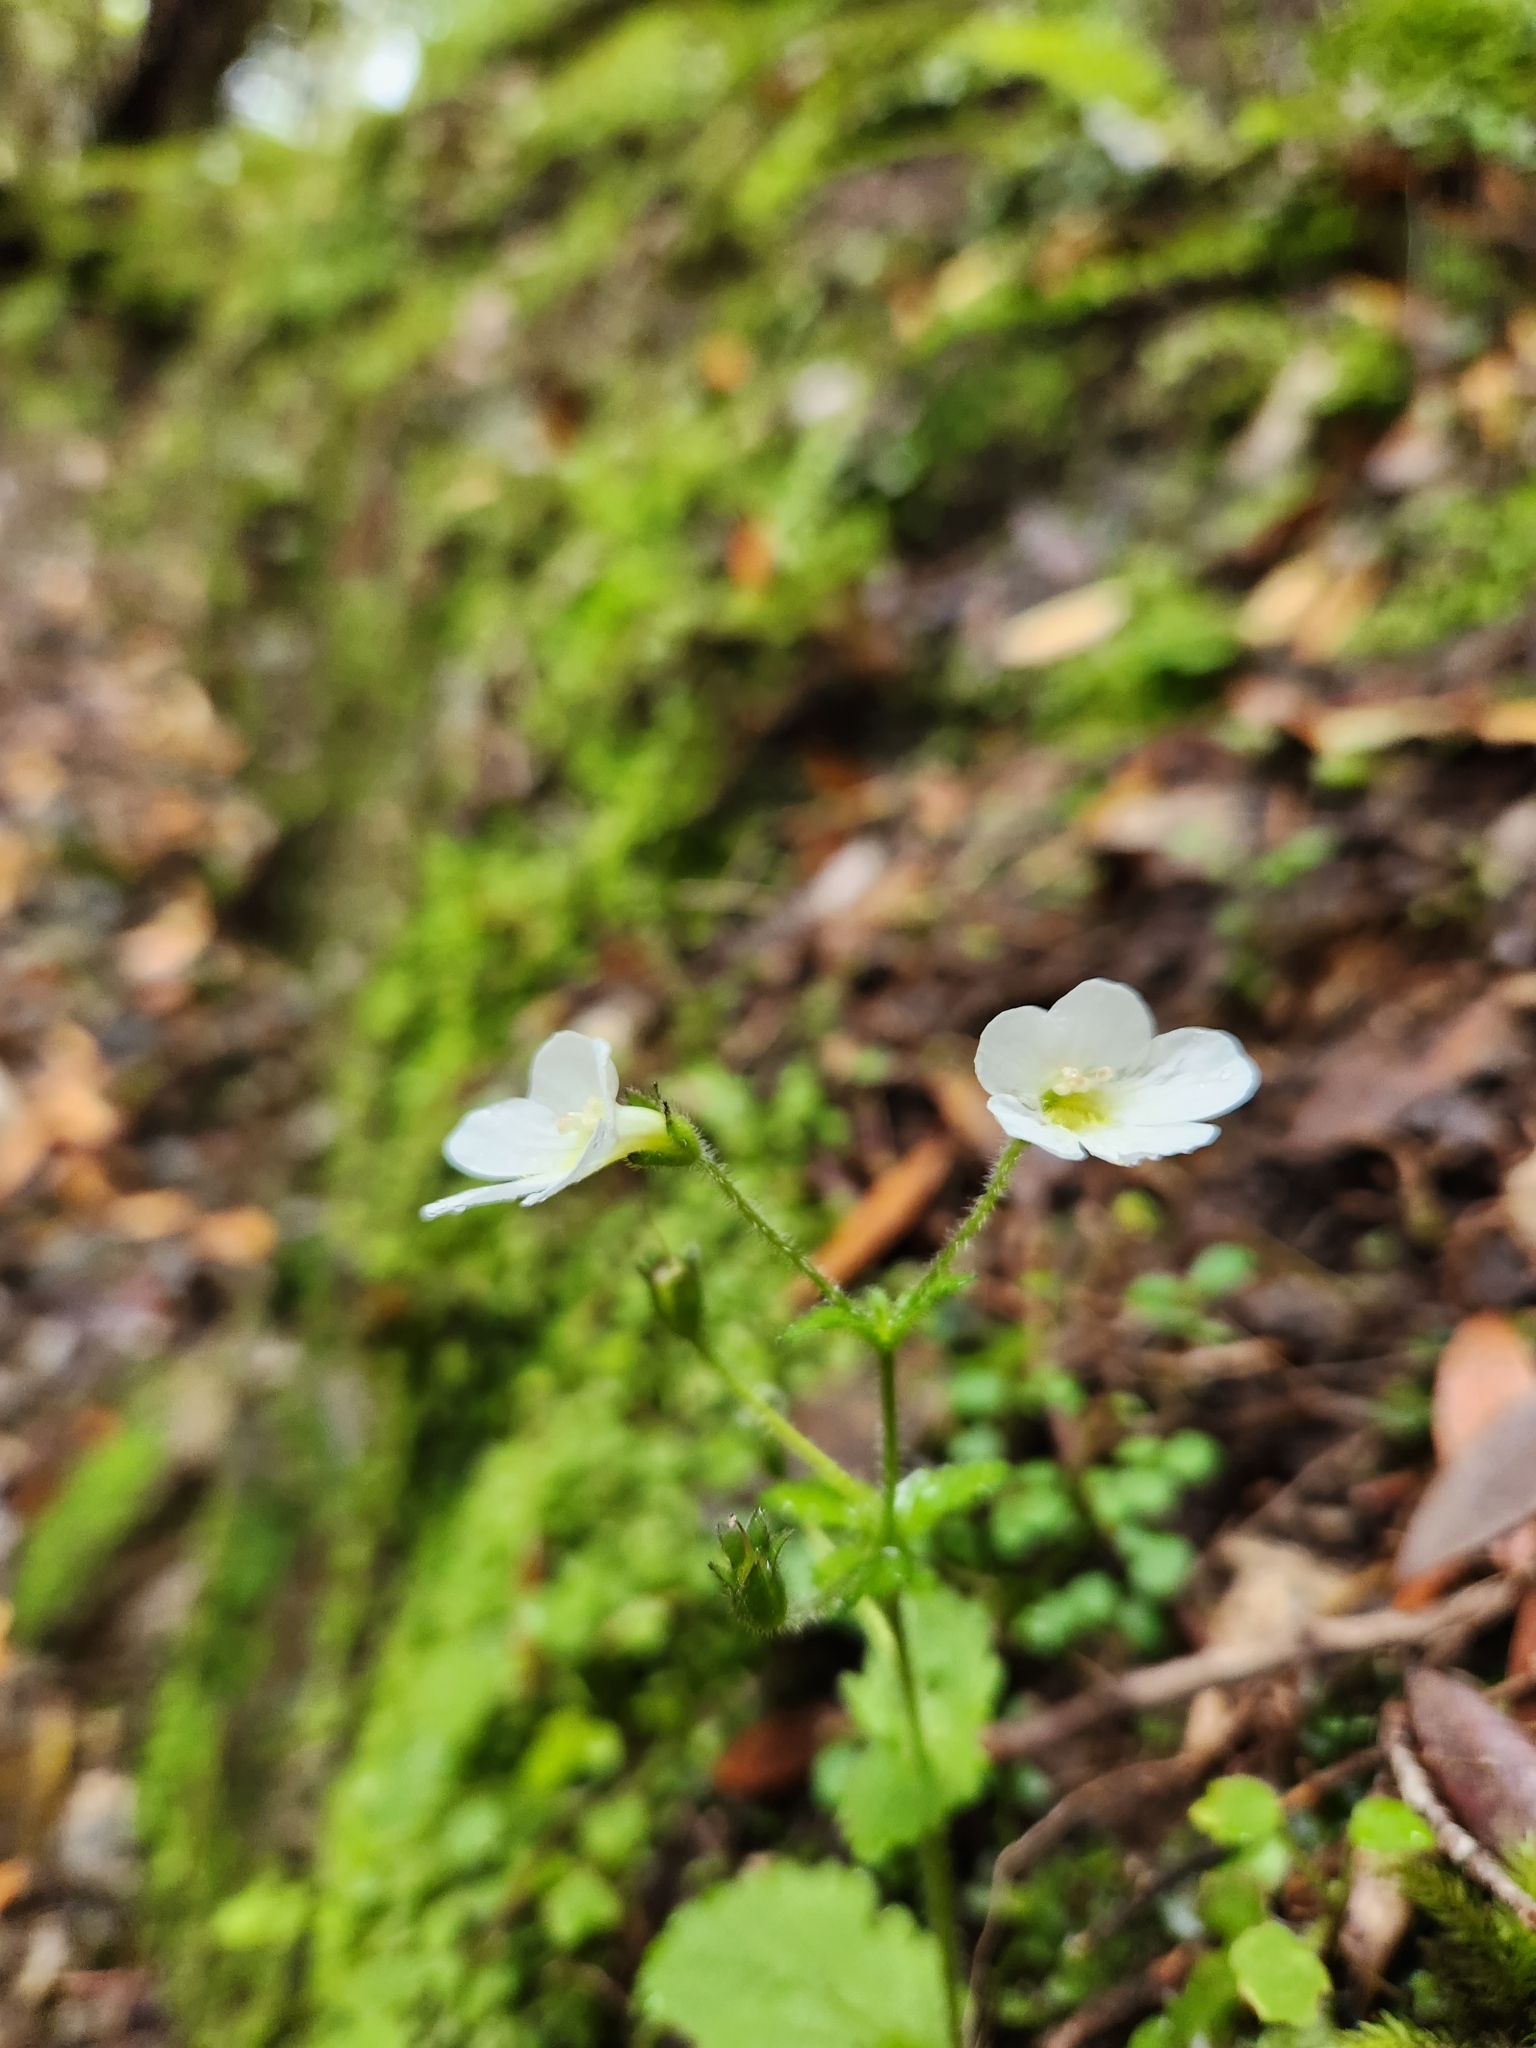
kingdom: Plantae
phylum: Tracheophyta
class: Magnoliopsida
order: Lamiales
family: Plantaginaceae
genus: Ourisia
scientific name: Ourisia macrophylla
